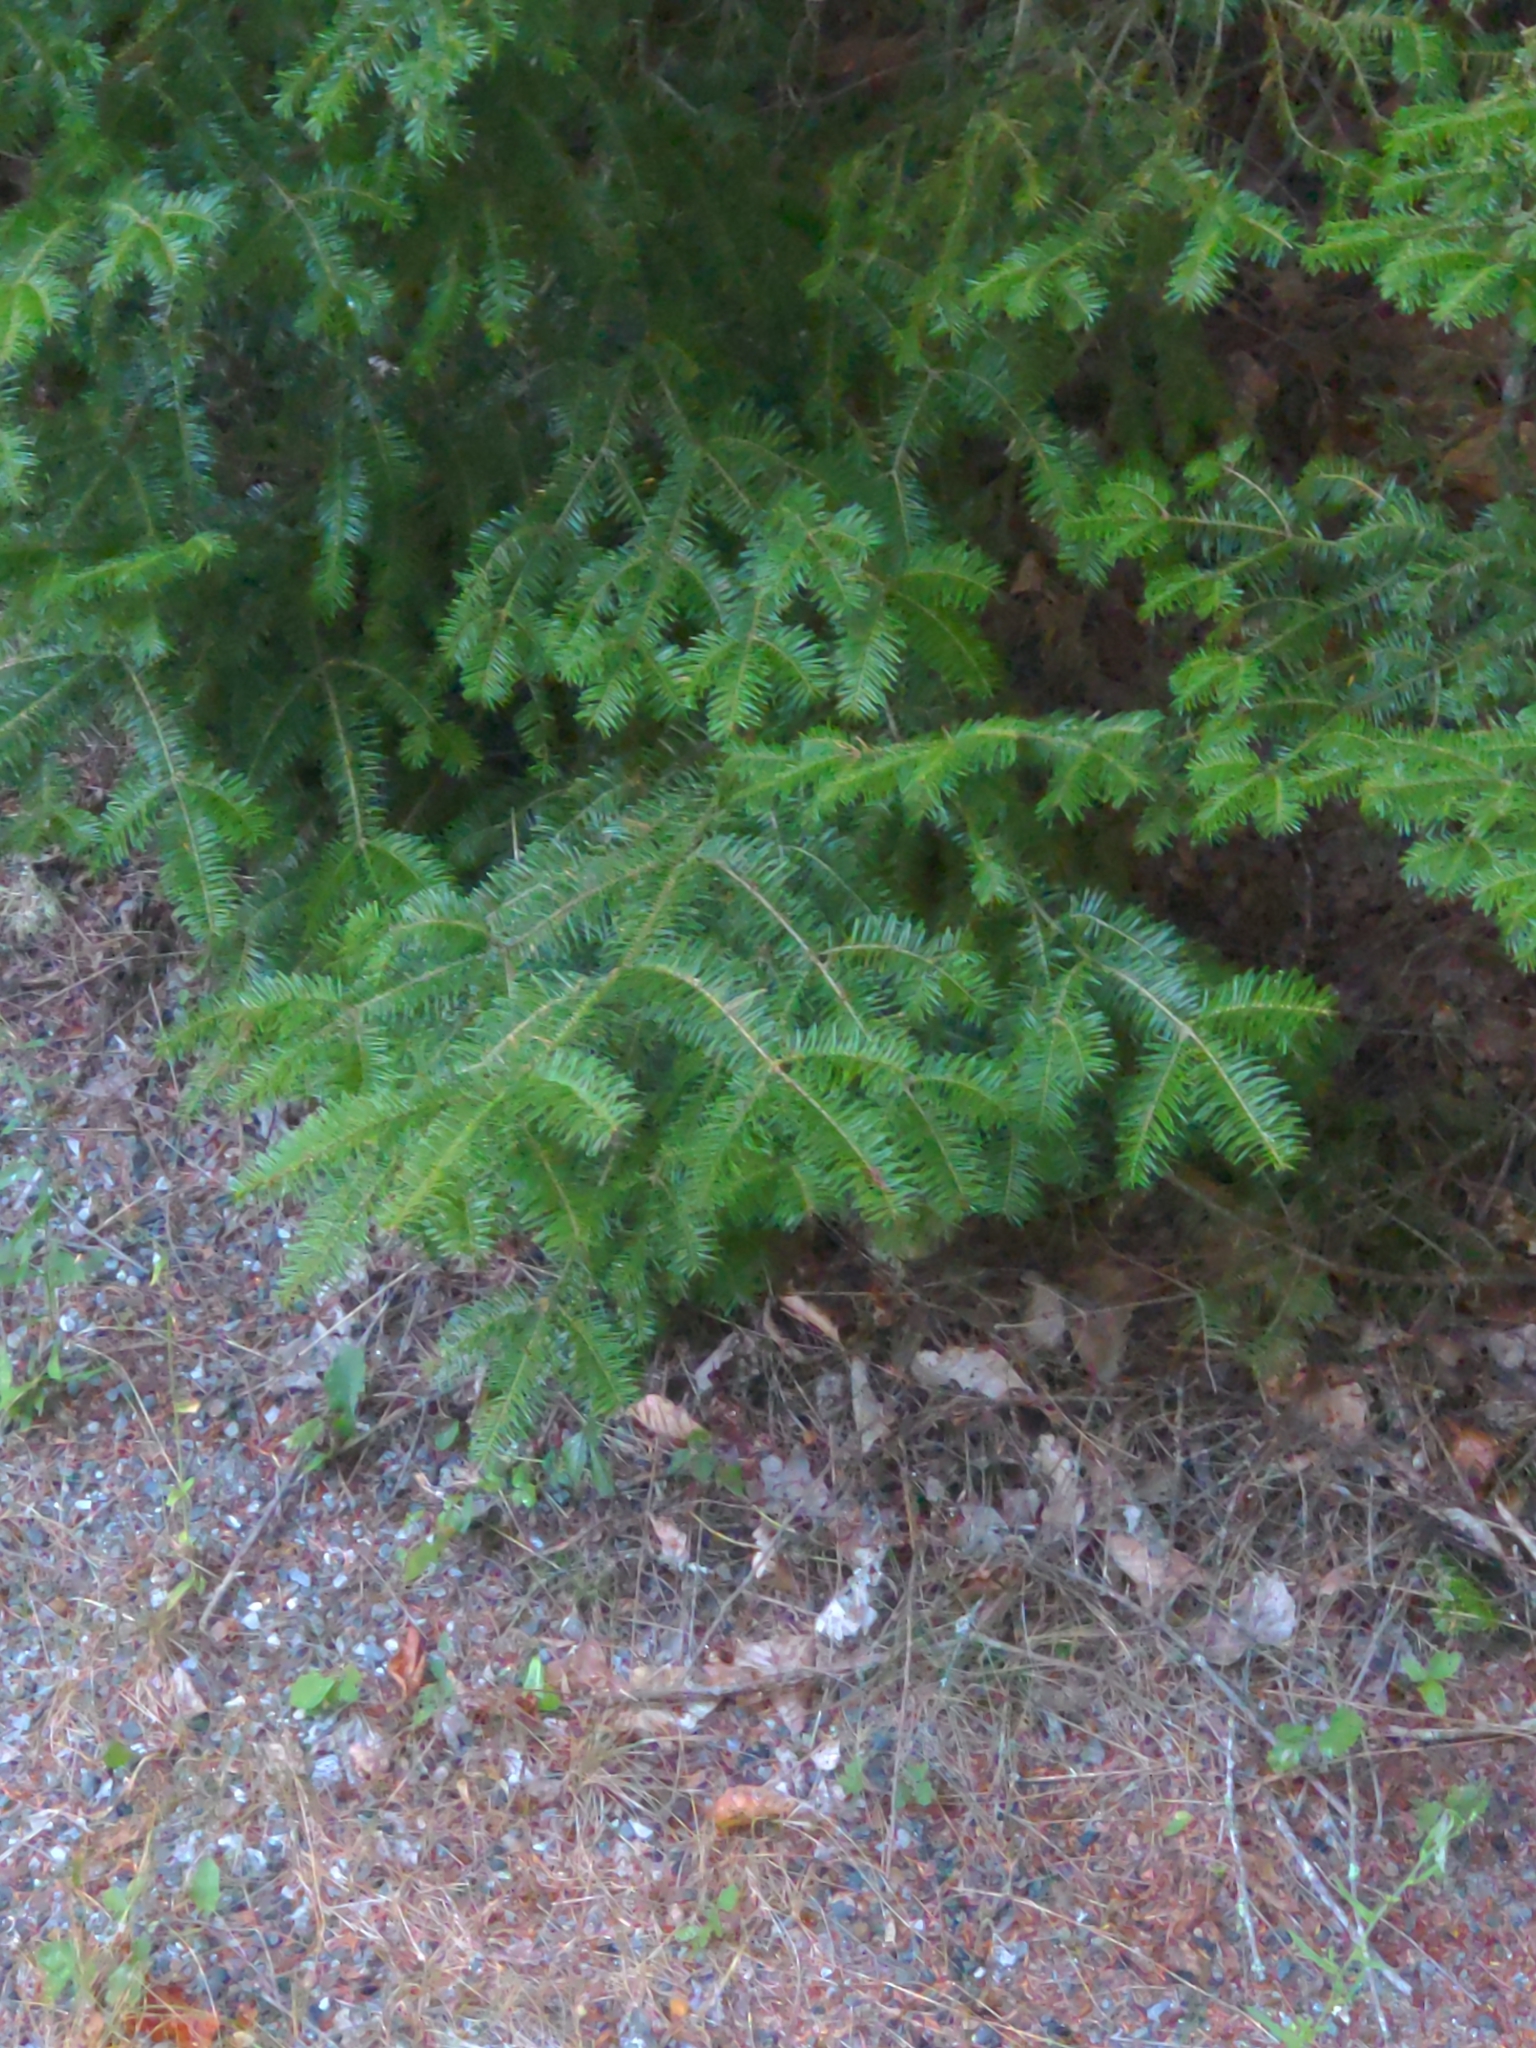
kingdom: Plantae
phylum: Tracheophyta
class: Pinopsida
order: Pinales
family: Pinaceae
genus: Abies
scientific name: Abies balsamea
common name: Balsam fir
